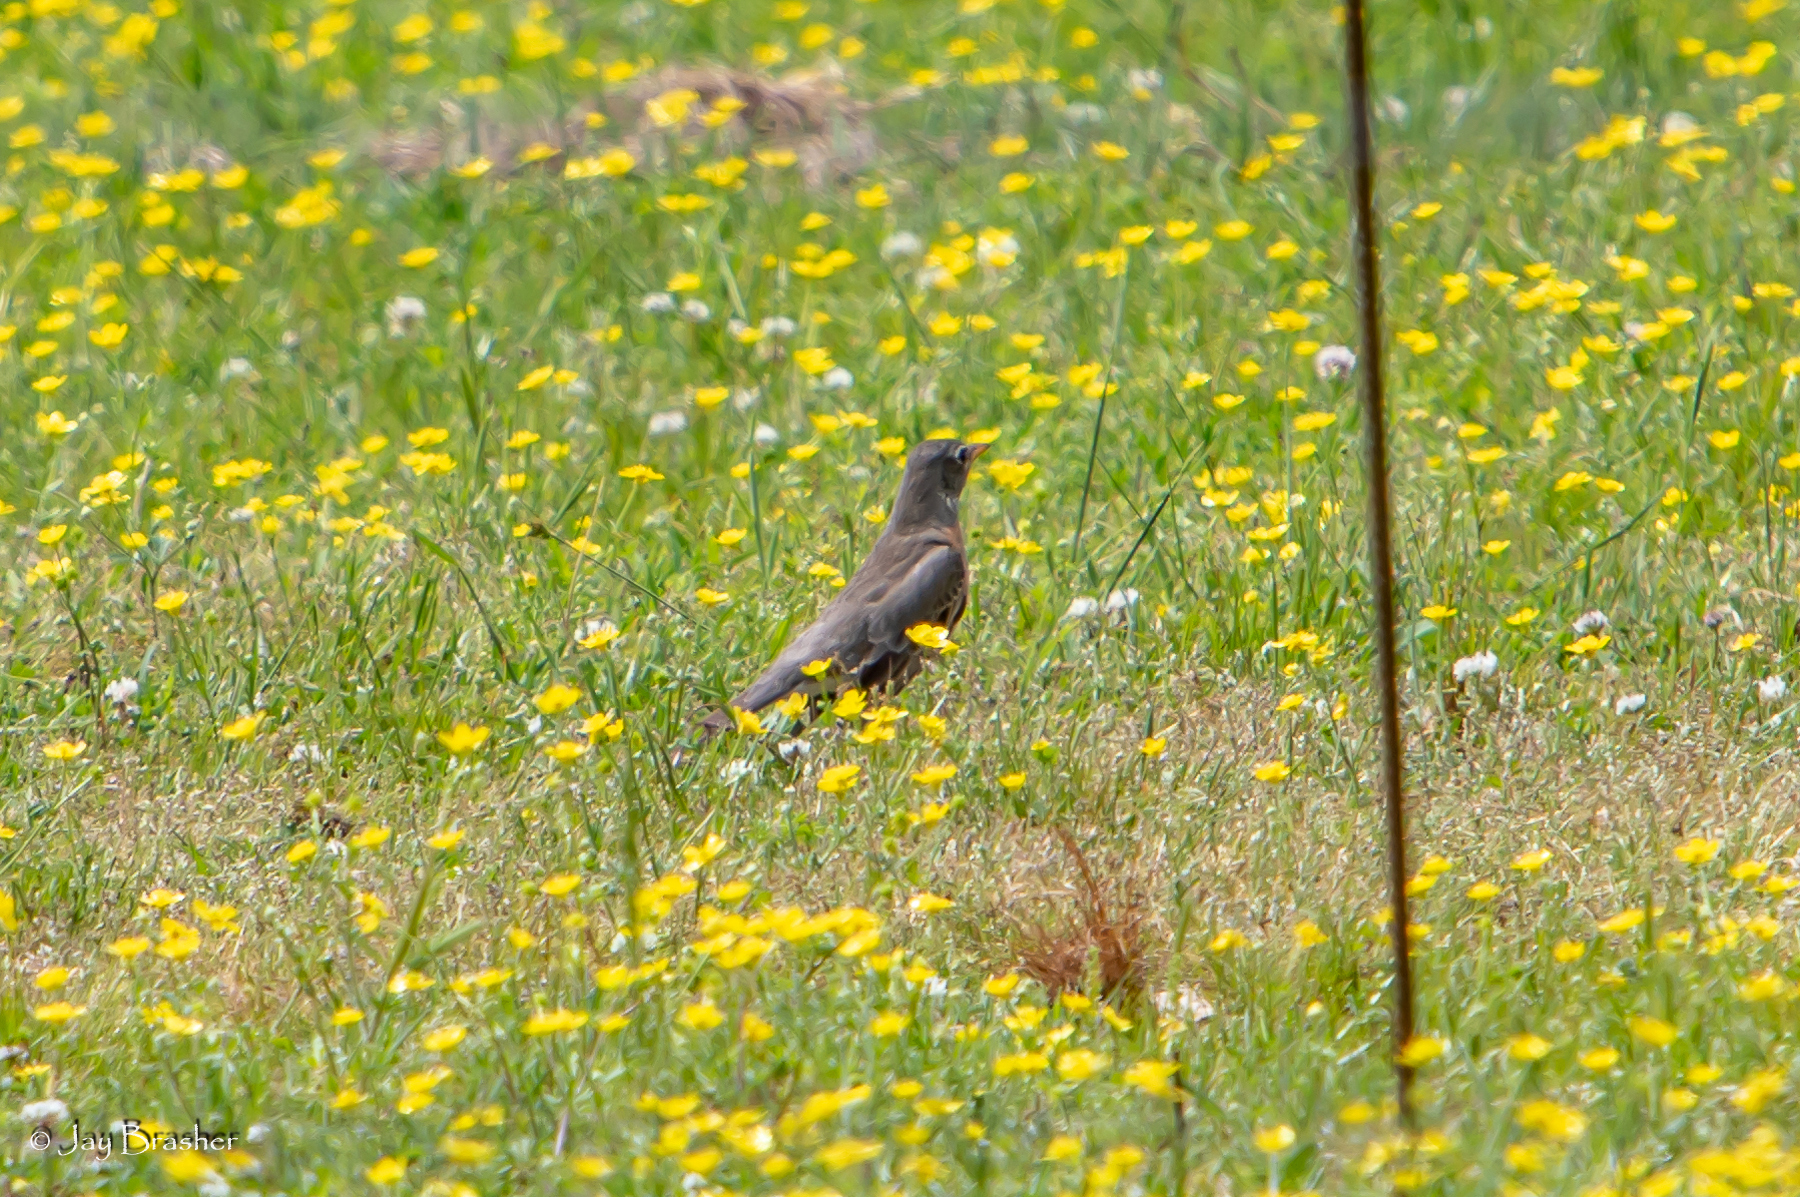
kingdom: Animalia
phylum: Chordata
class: Aves
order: Passeriformes
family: Turdidae
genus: Turdus
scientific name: Turdus migratorius
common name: American robin
